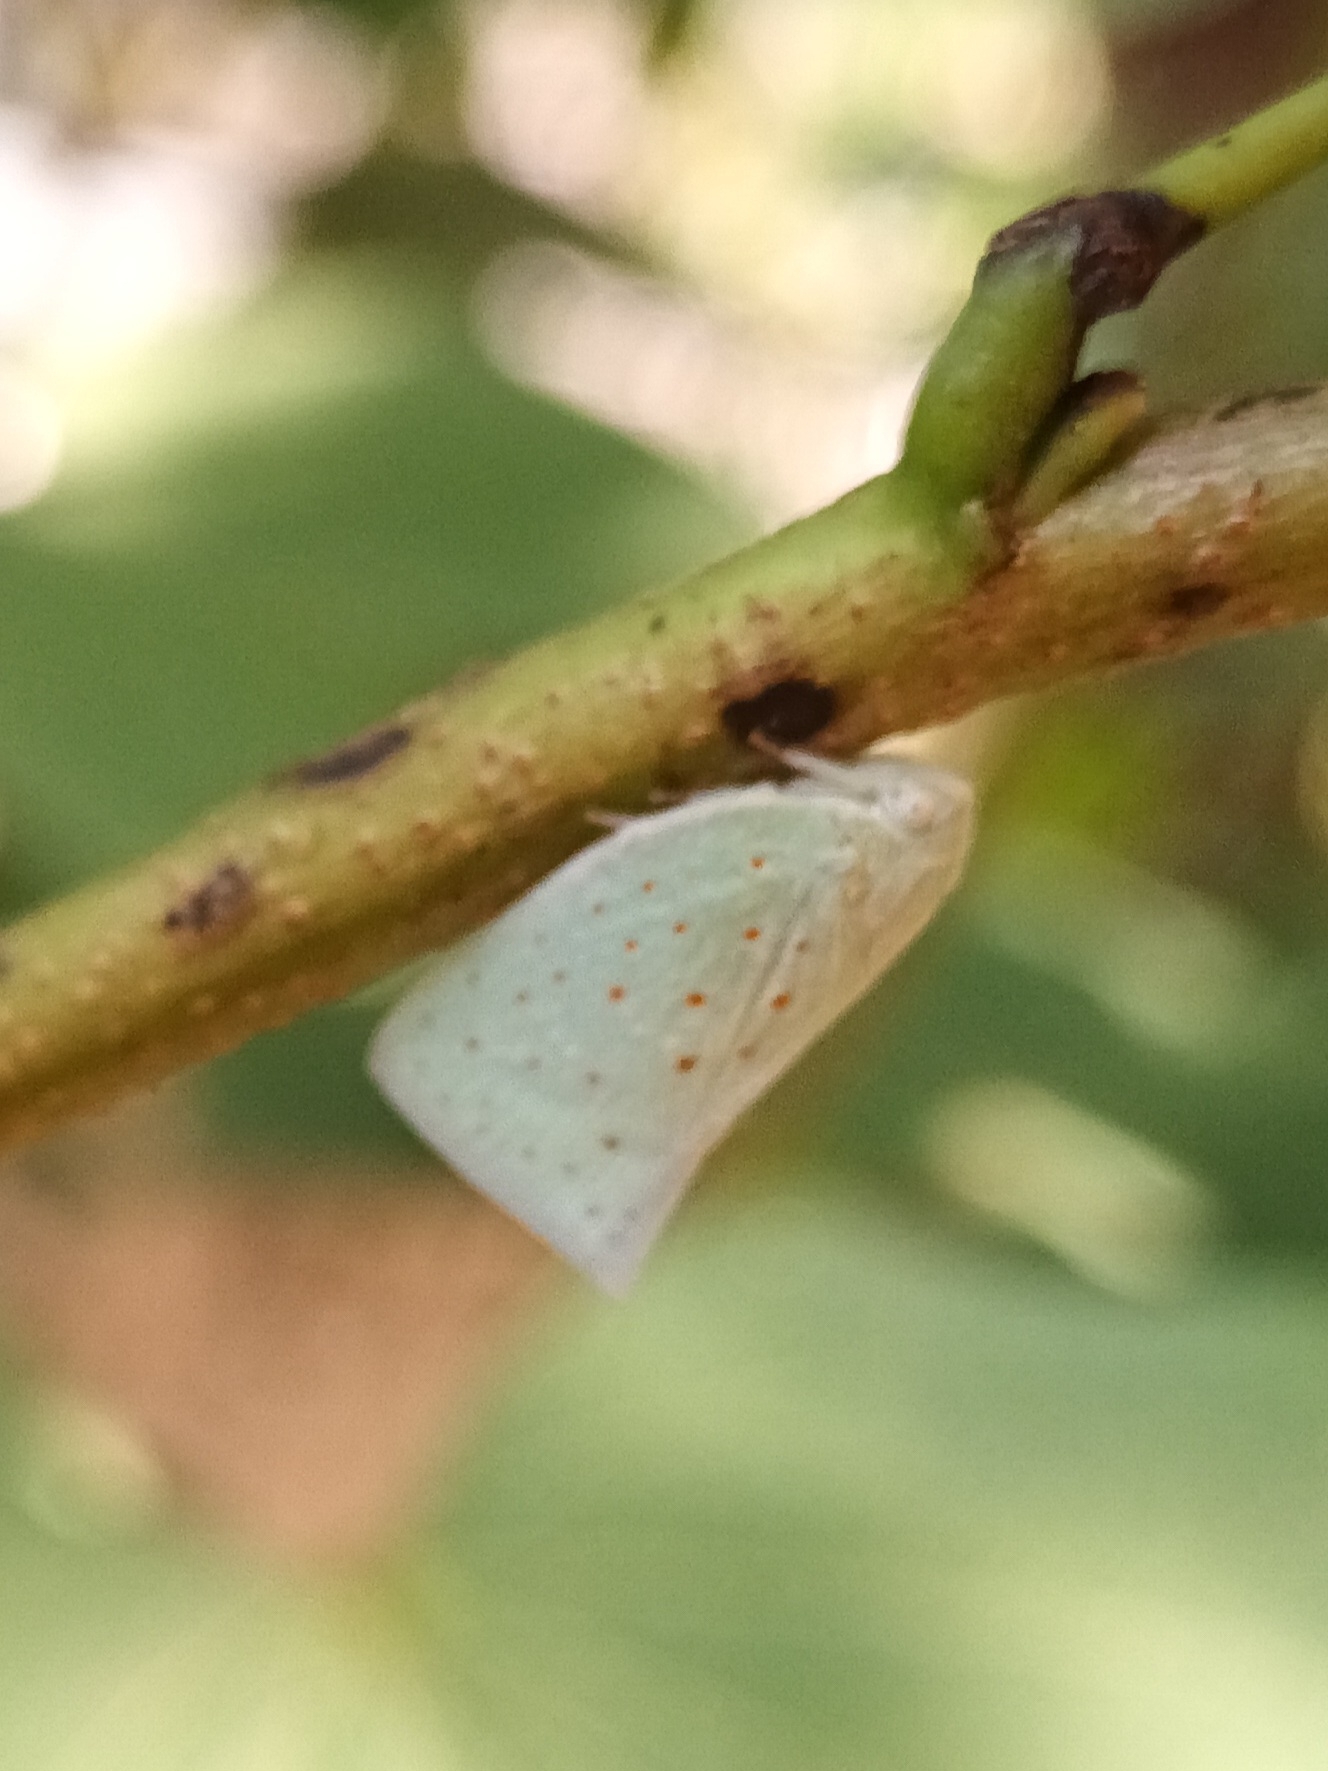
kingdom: Animalia
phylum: Arthropoda
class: Insecta
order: Hemiptera
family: Flatidae
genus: Flata
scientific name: Flata stellaris
